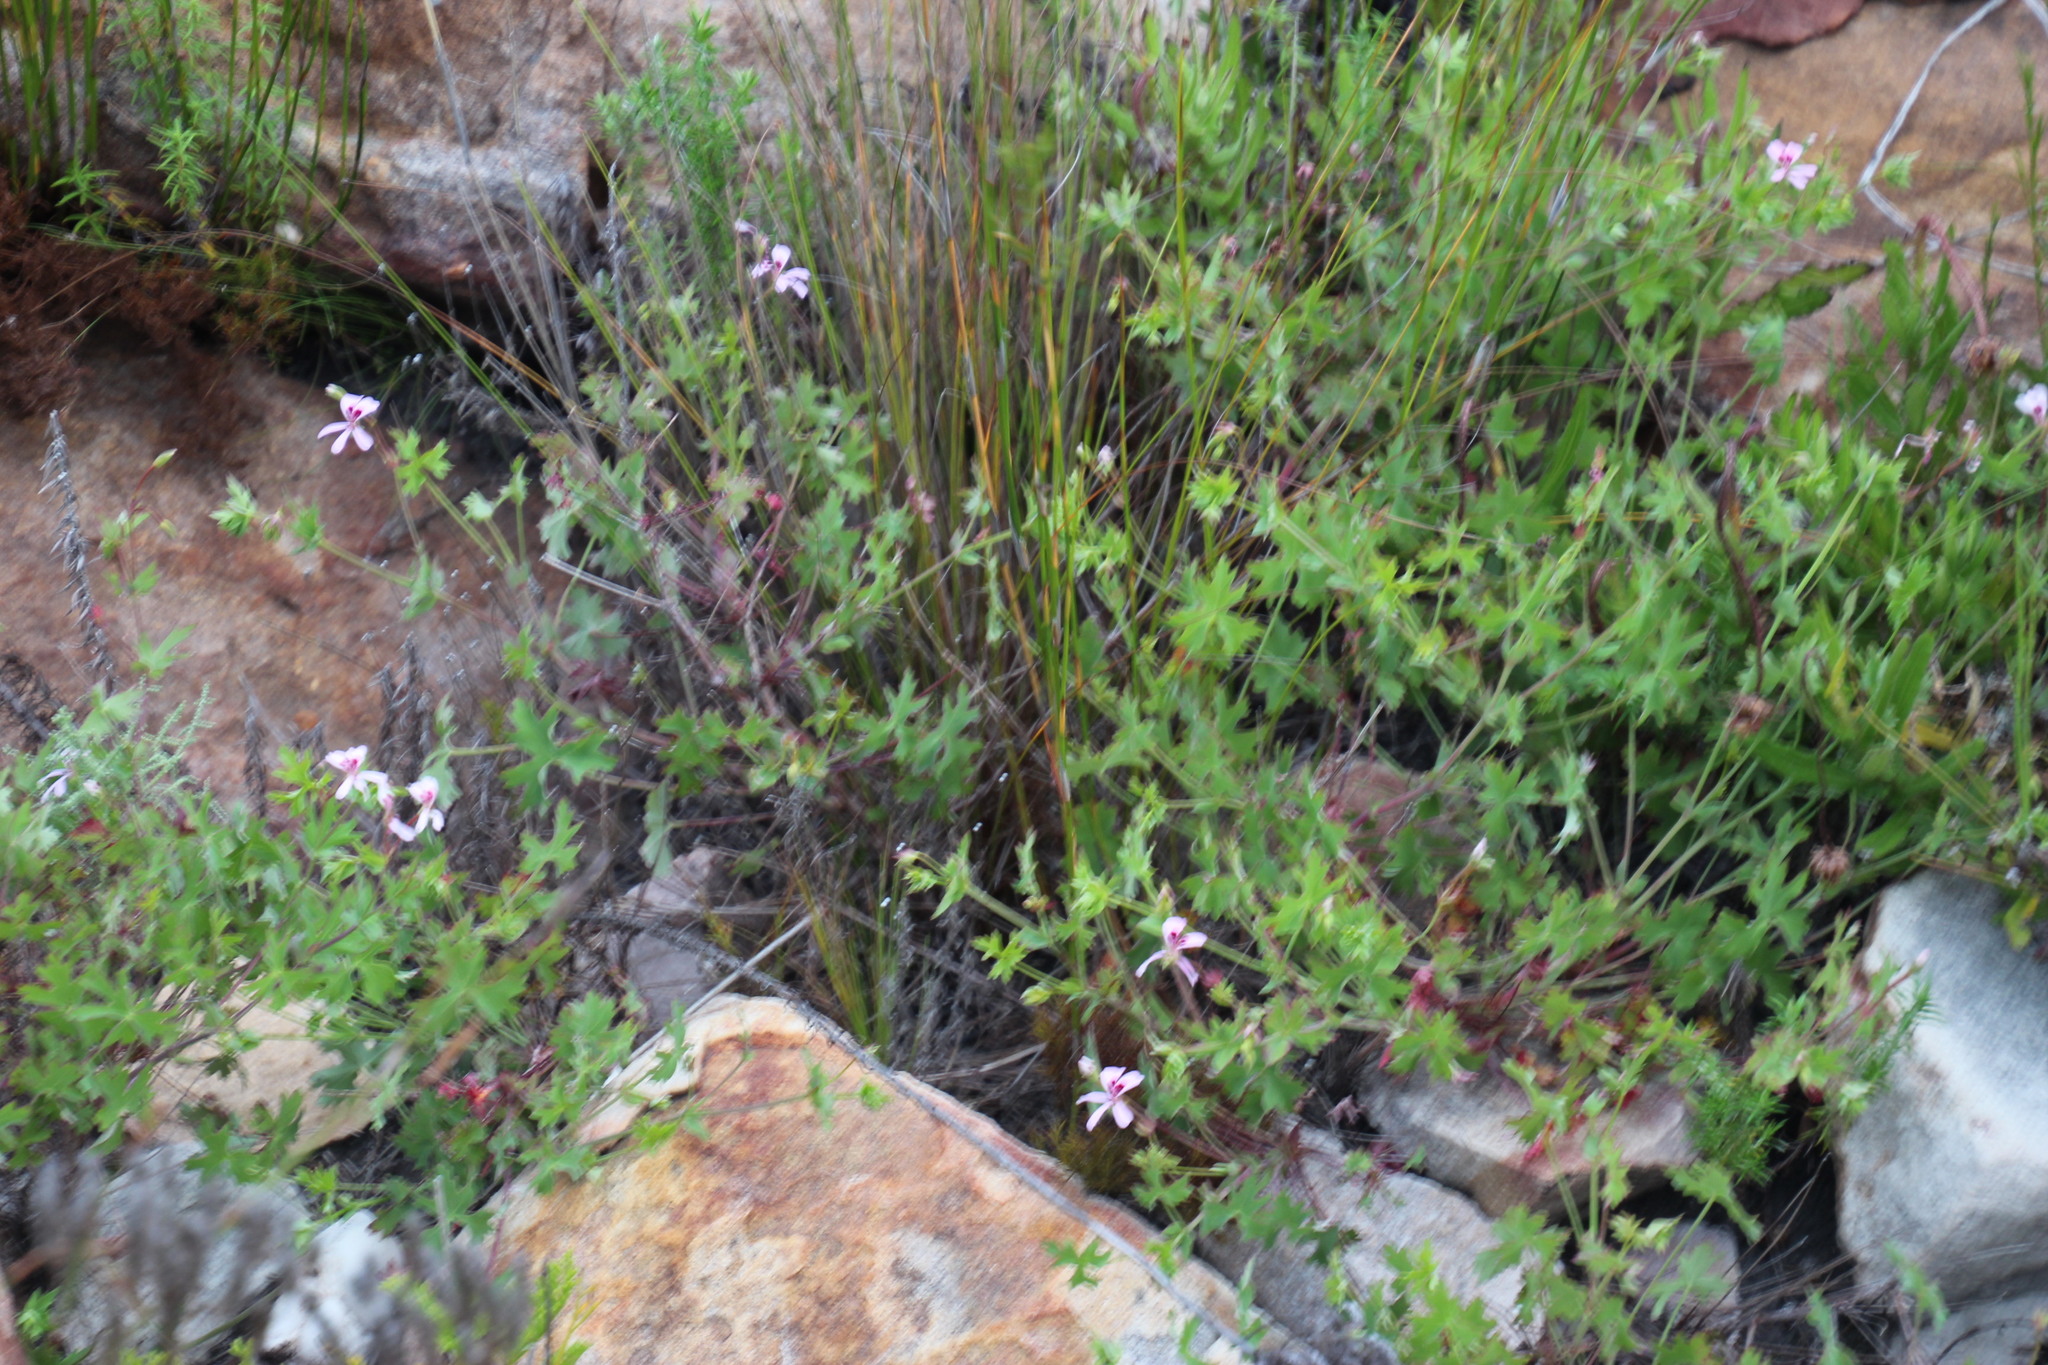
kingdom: Plantae
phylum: Tracheophyta
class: Magnoliopsida
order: Geraniales
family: Geraniaceae
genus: Pelargonium
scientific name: Pelargonium patulum
